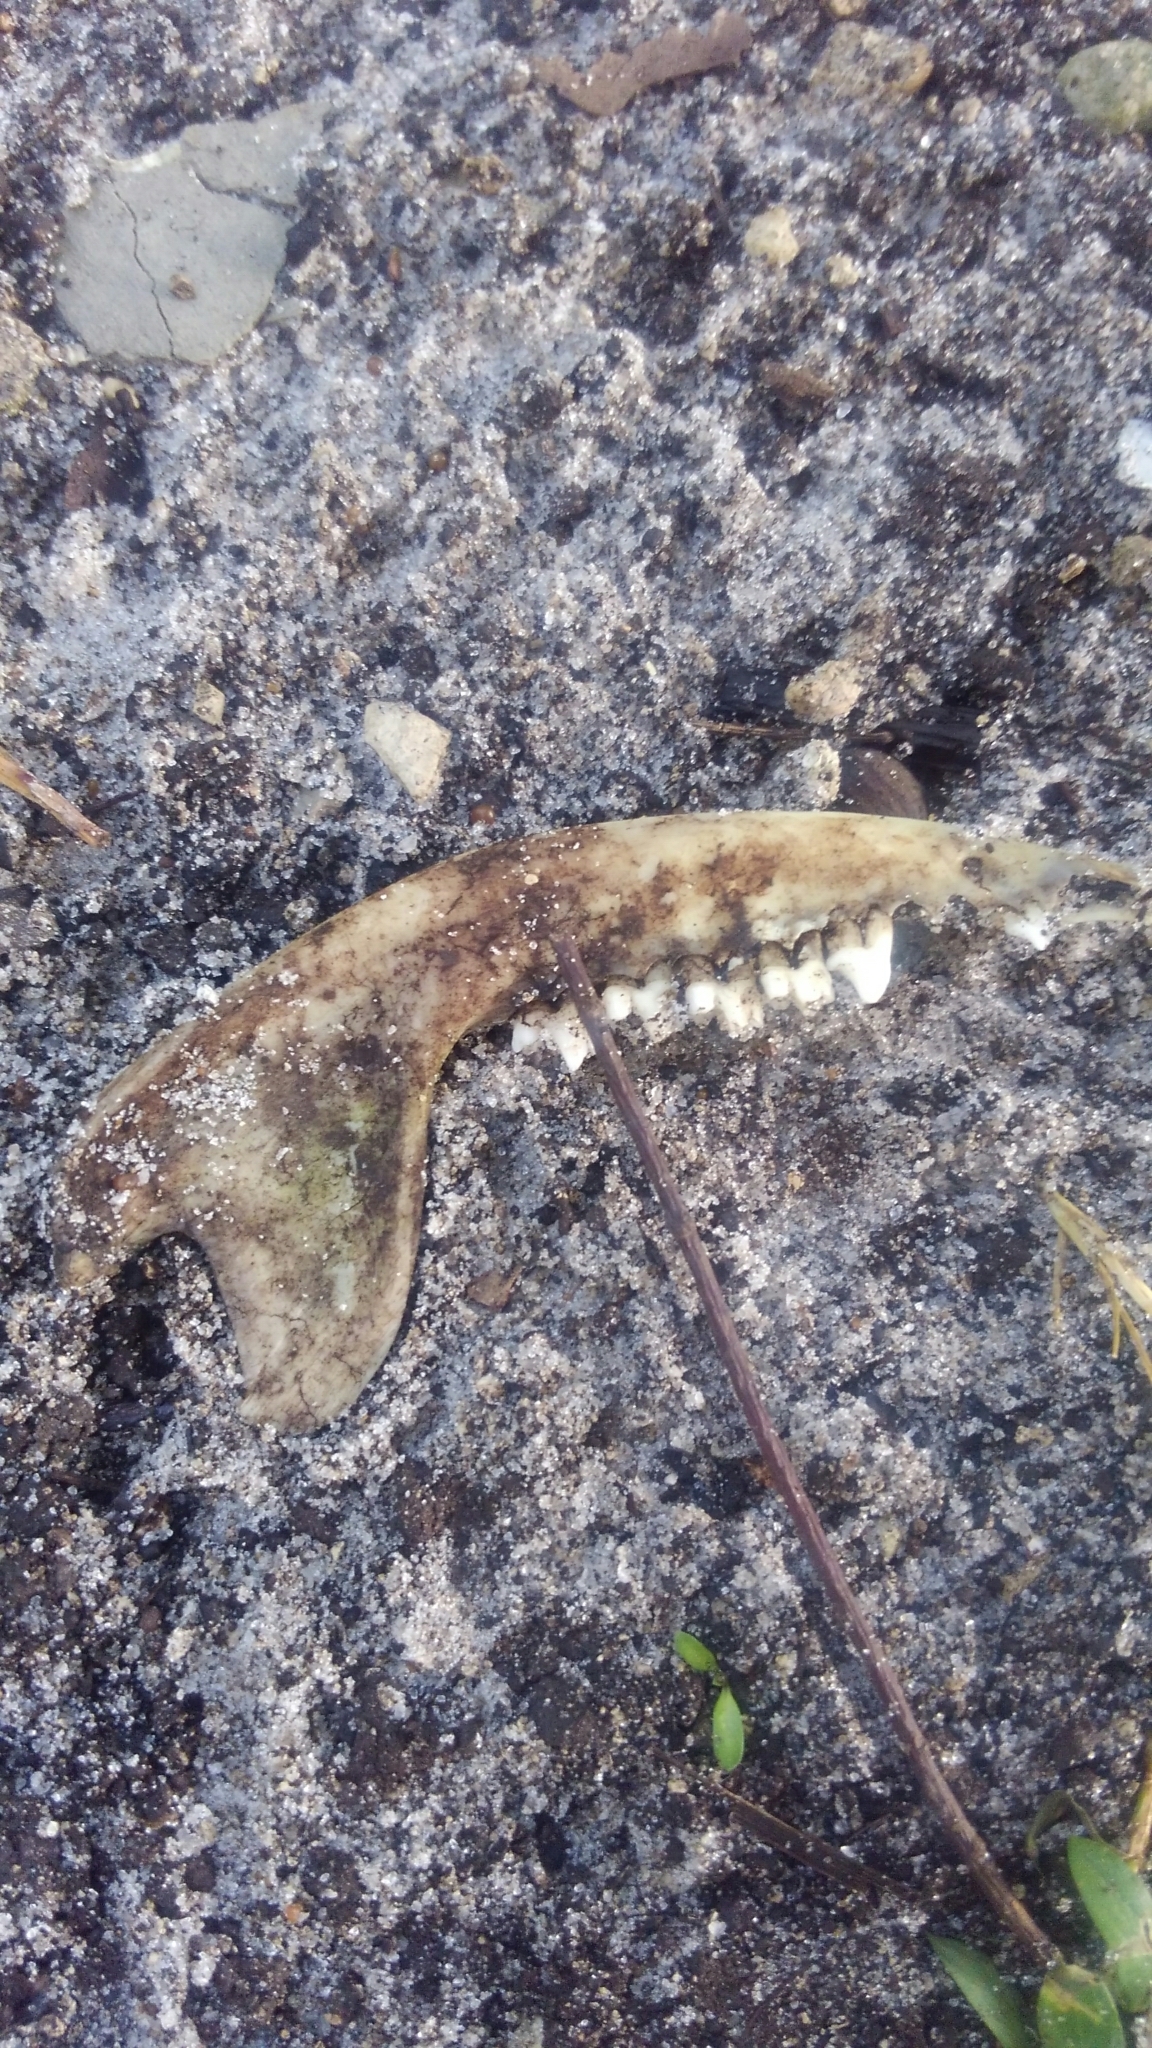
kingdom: Animalia
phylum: Chordata
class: Mammalia
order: Didelphimorphia
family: Didelphidae
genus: Didelphis
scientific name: Didelphis virginiana
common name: Virginia opossum
